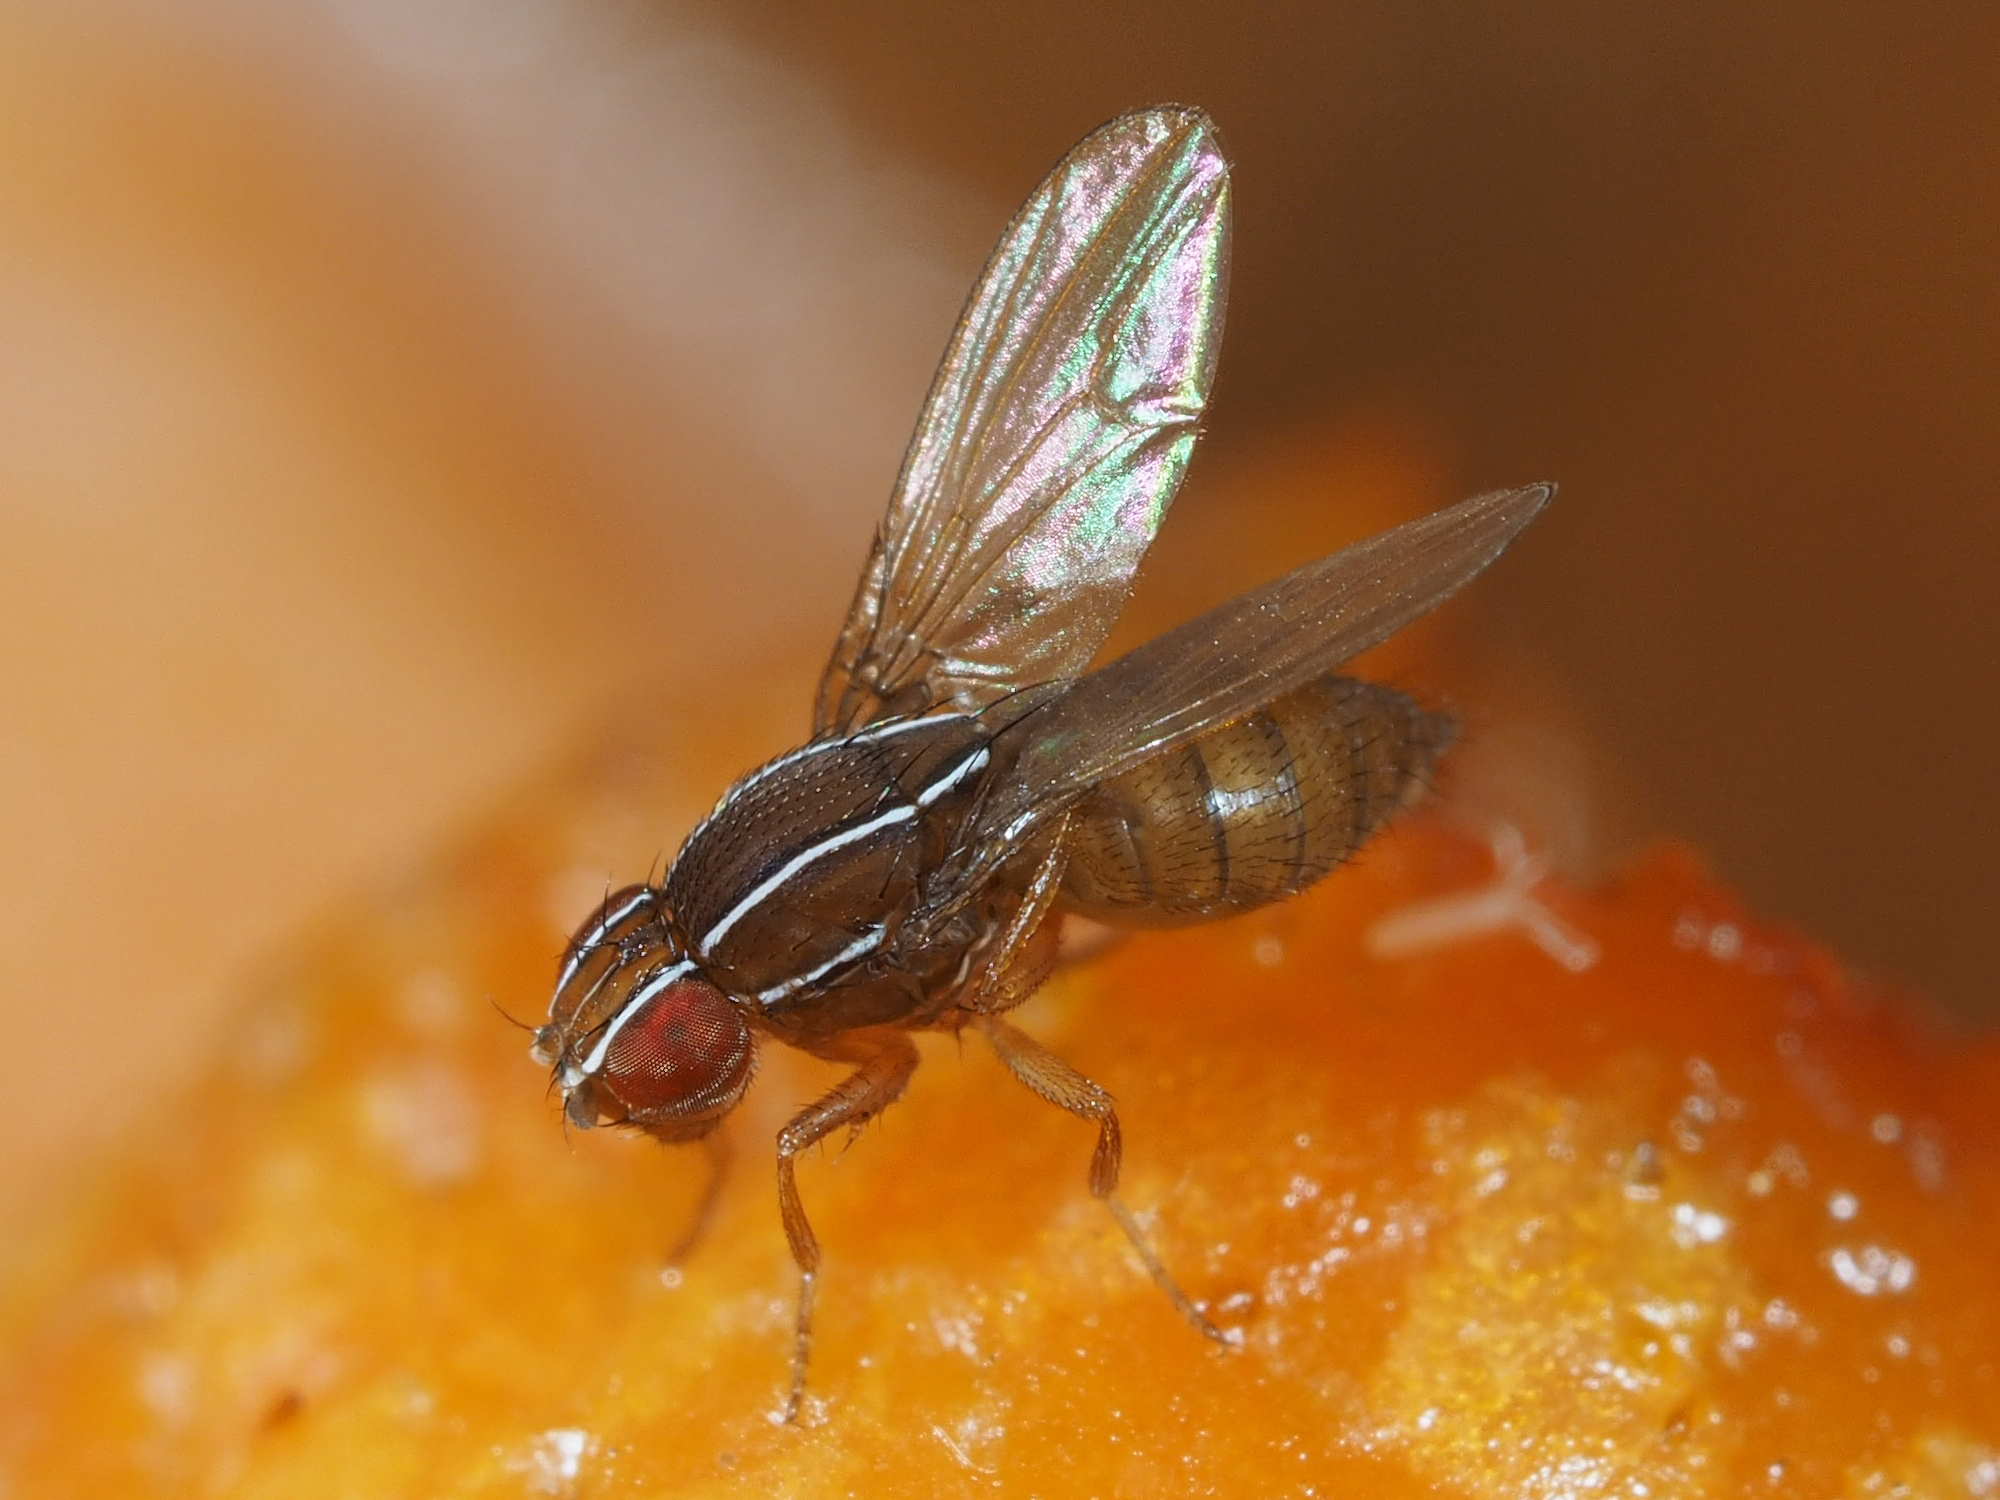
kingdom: Animalia
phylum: Arthropoda
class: Insecta
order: Diptera
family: Drosophilidae
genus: Zaprionus
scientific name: Zaprionus indianus
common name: African fig fly
